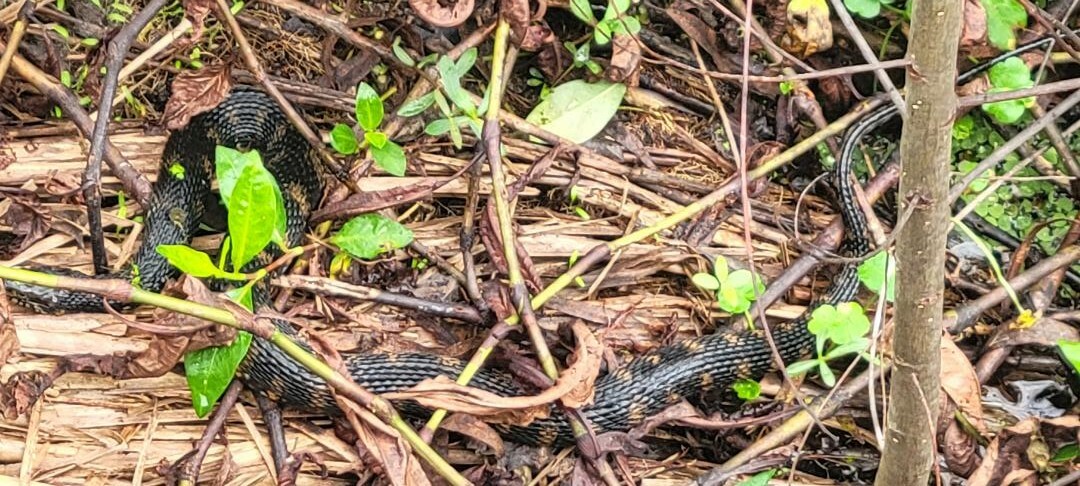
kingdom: Animalia
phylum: Chordata
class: Squamata
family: Colubridae
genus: Nerodia
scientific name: Nerodia fasciata
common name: Southern water snake
